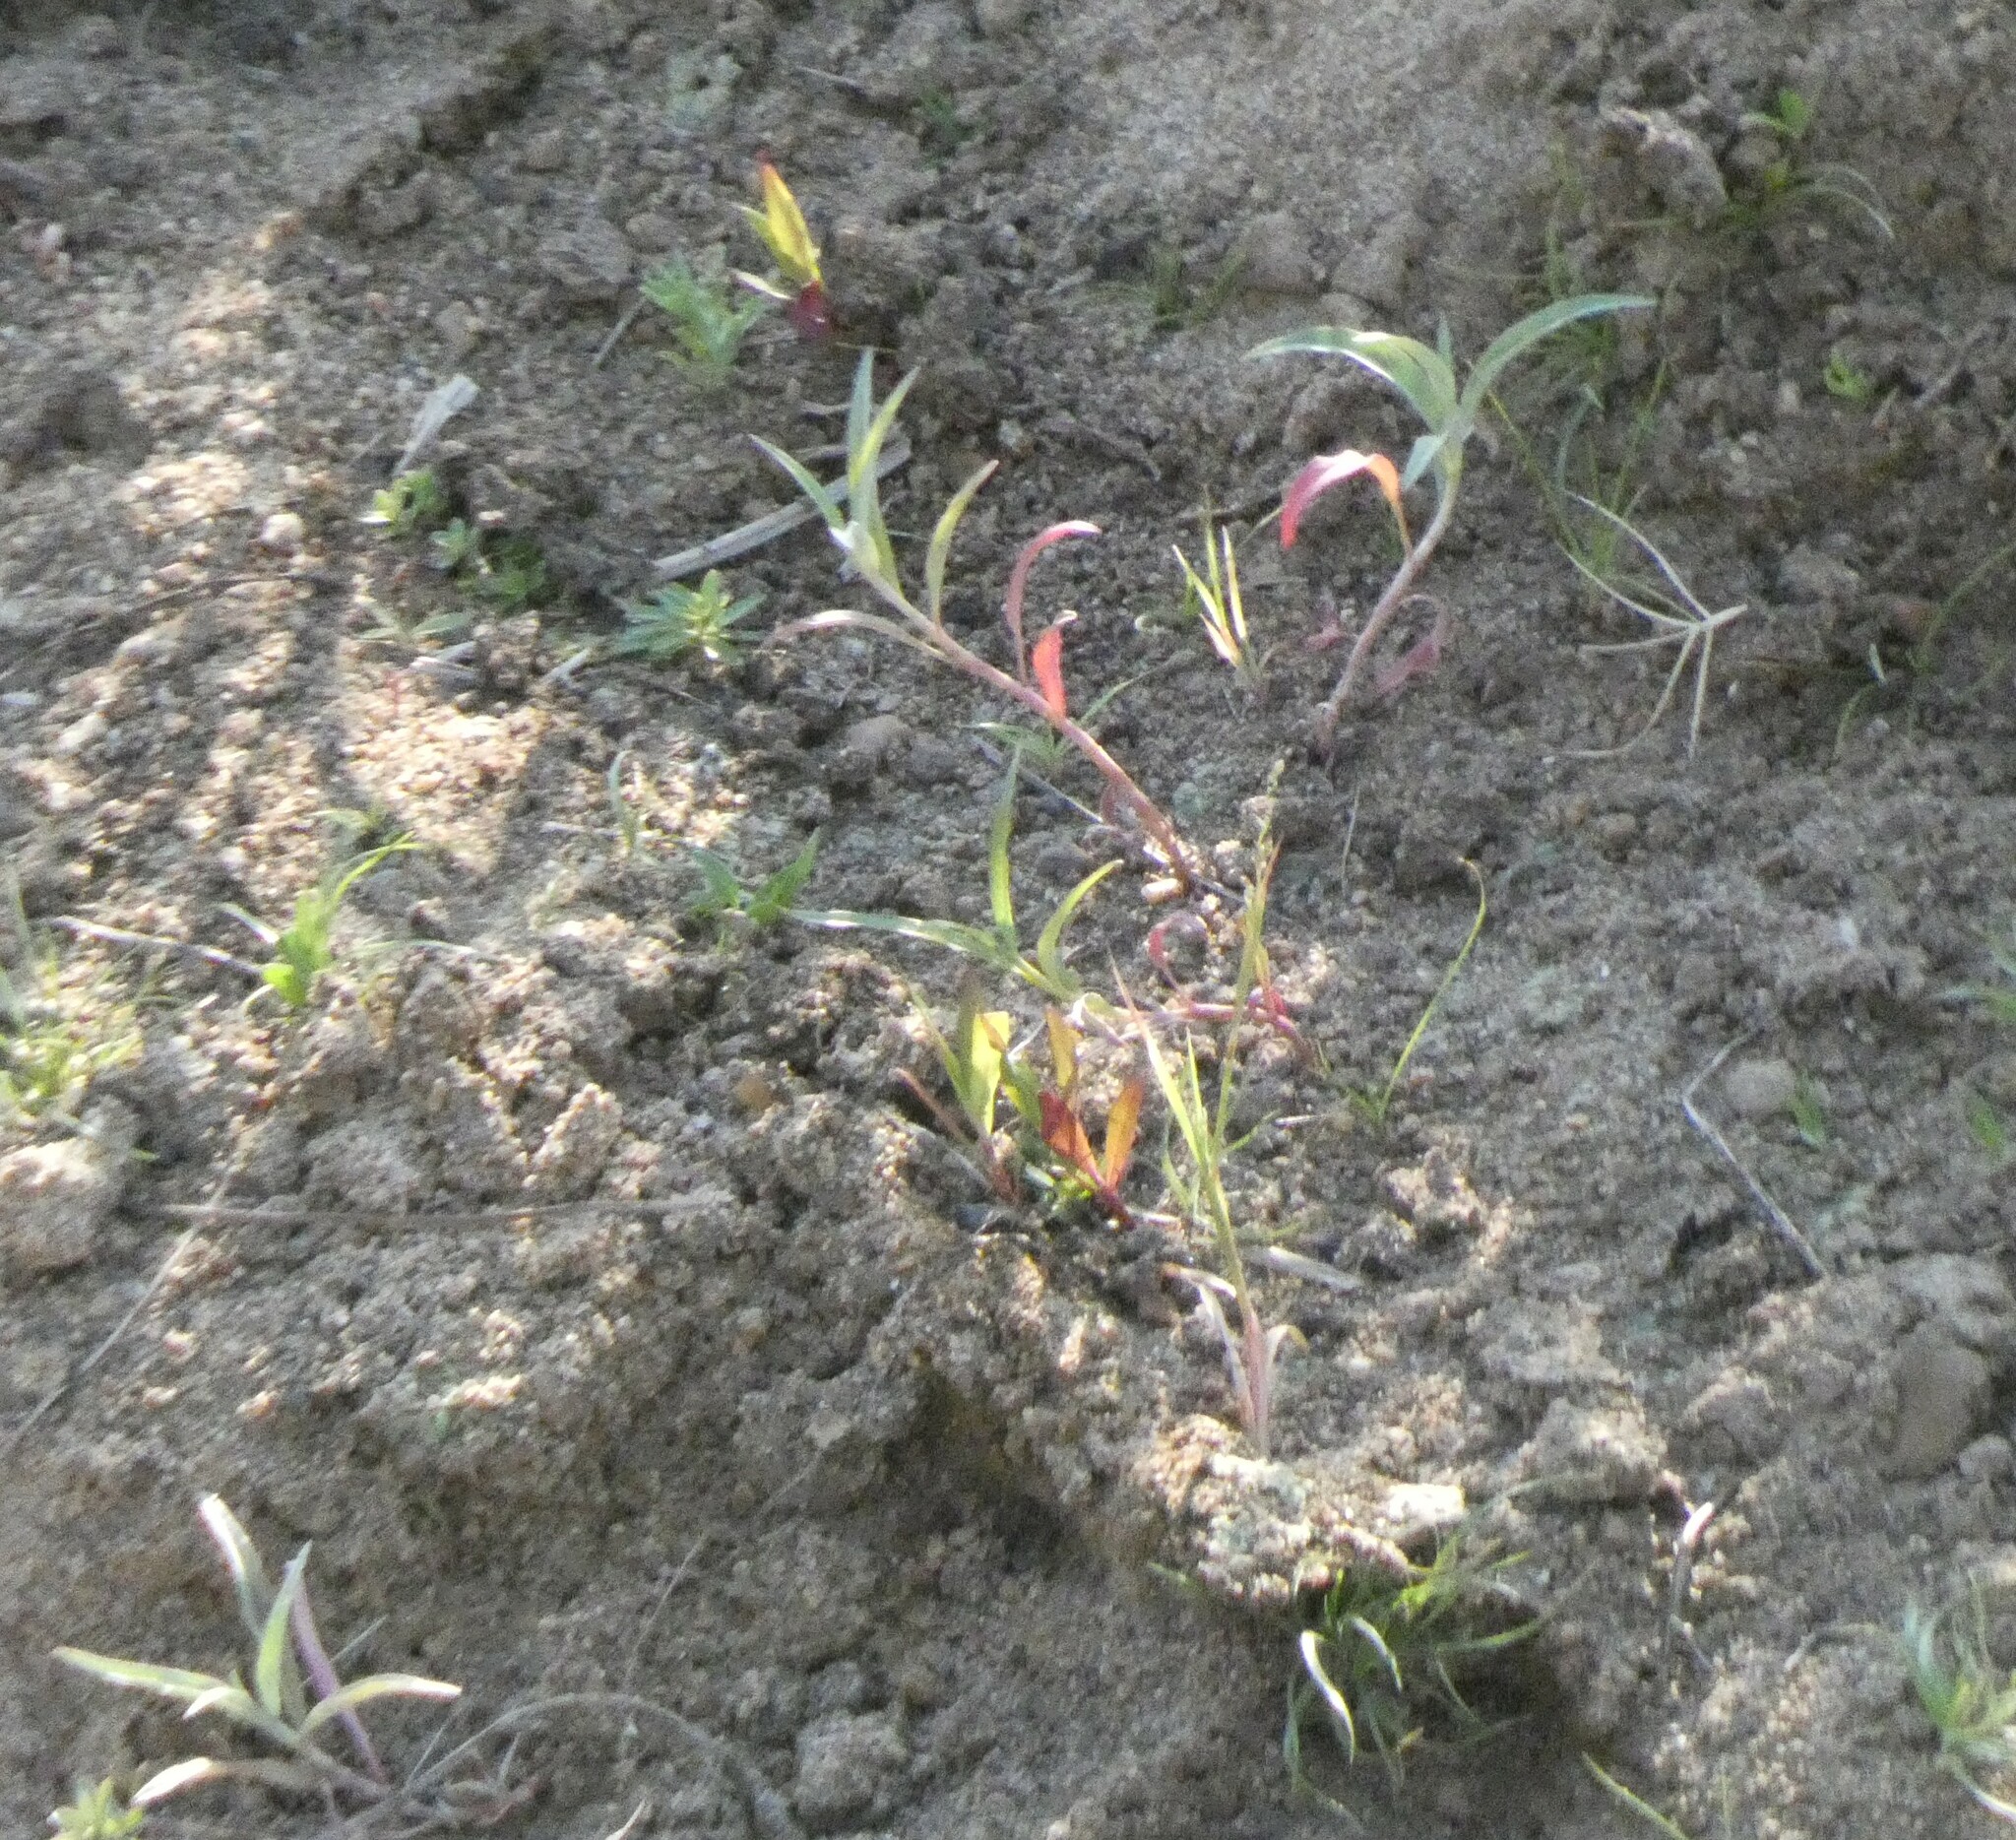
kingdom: Plantae
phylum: Tracheophyta
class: Magnoliopsida
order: Caryophyllales
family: Polygonaceae
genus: Persicaria
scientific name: Persicaria senegalensis
